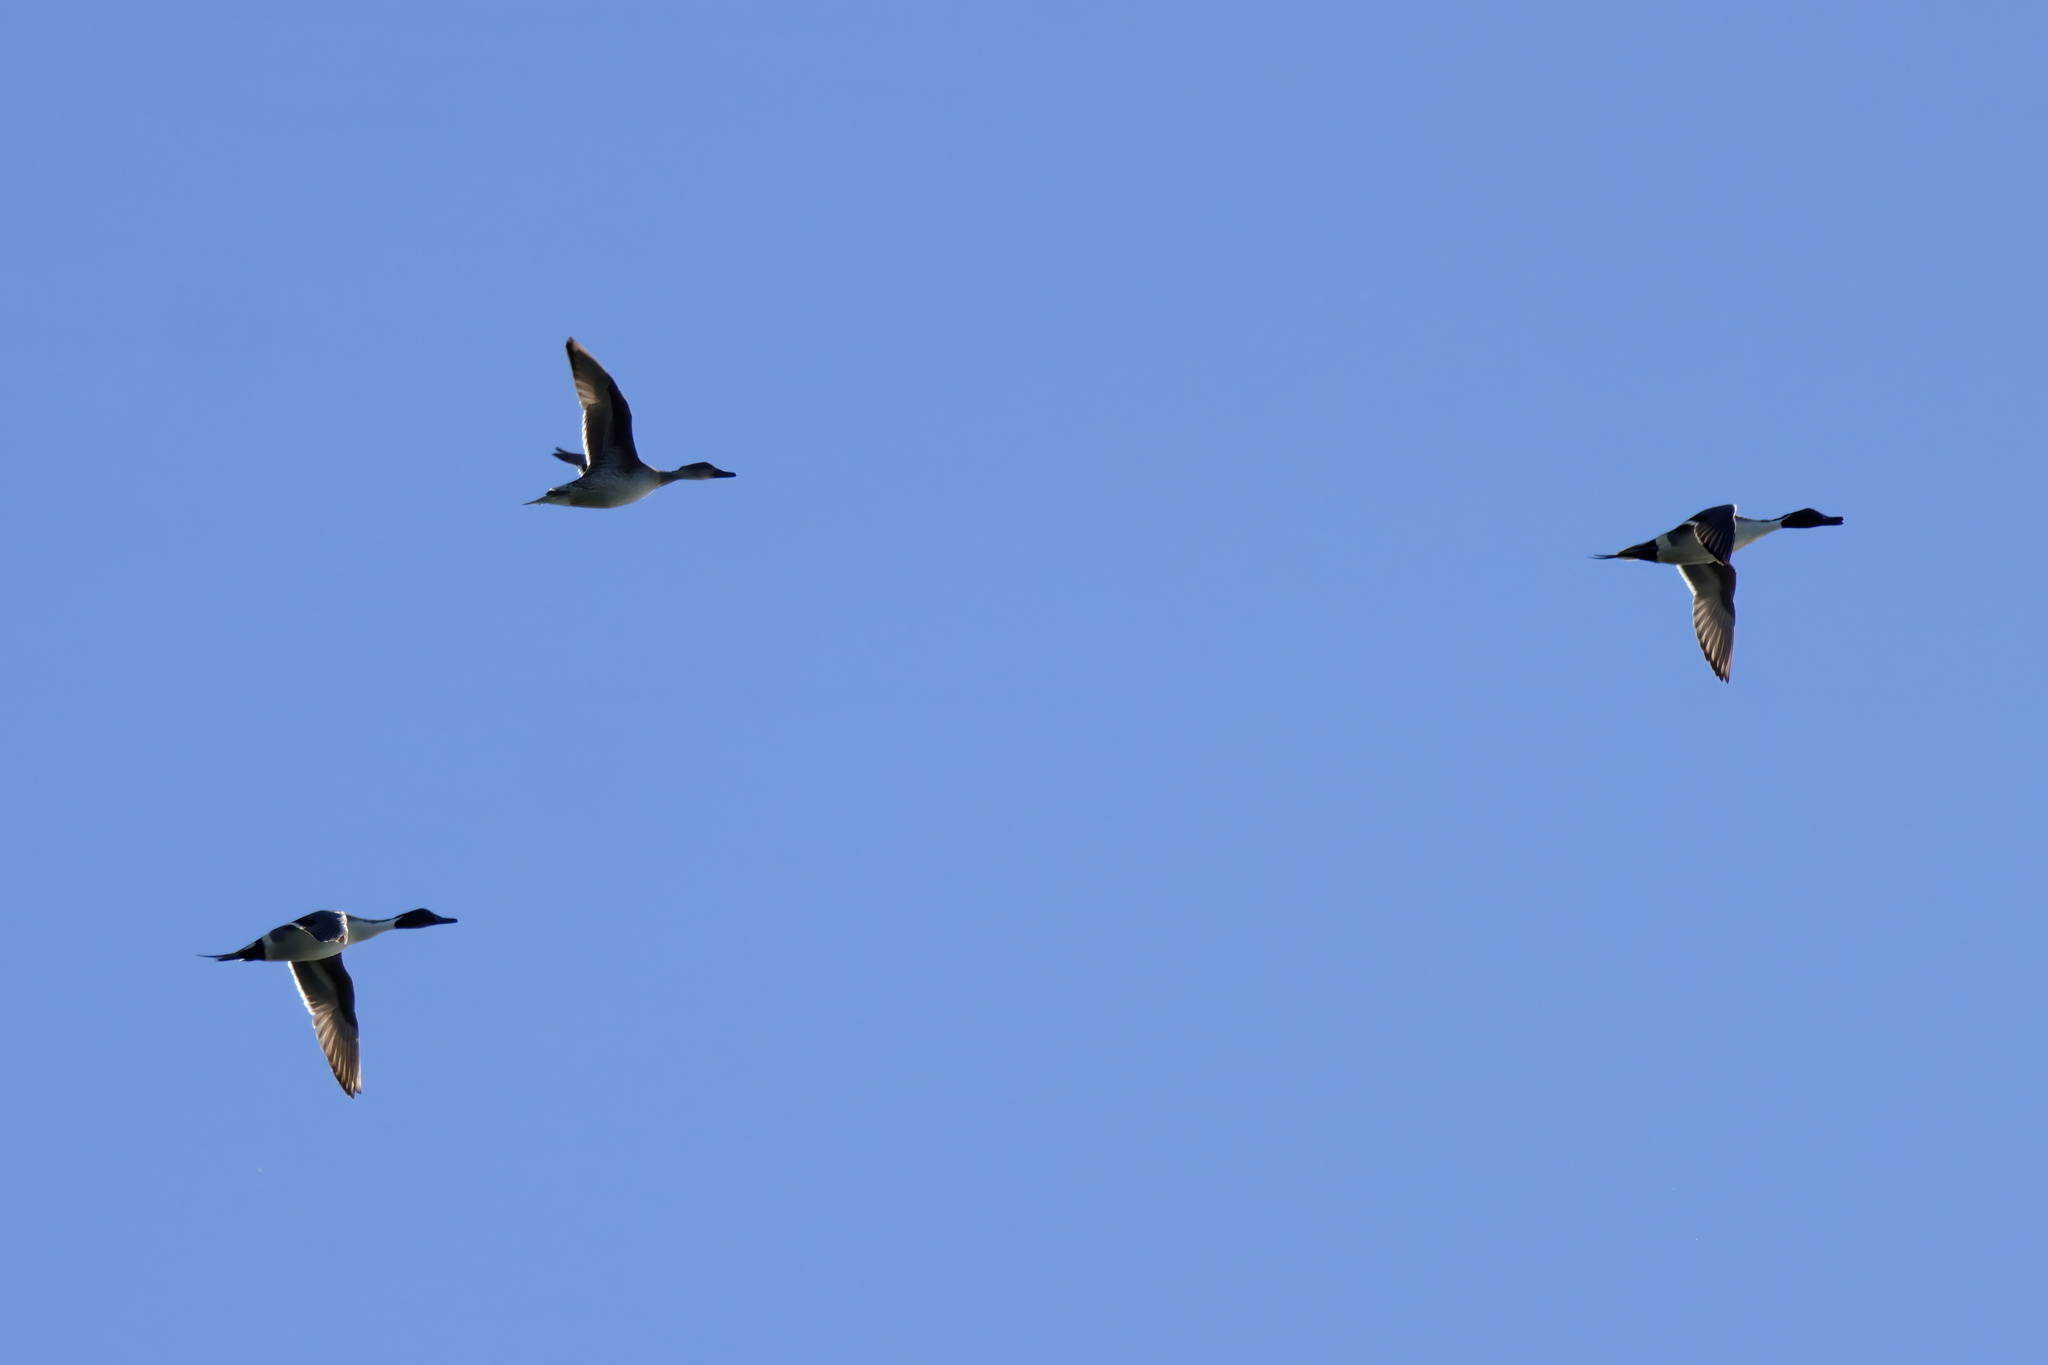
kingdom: Animalia
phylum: Chordata
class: Aves
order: Anseriformes
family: Anatidae
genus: Anas
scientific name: Anas acuta
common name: Northern pintail
